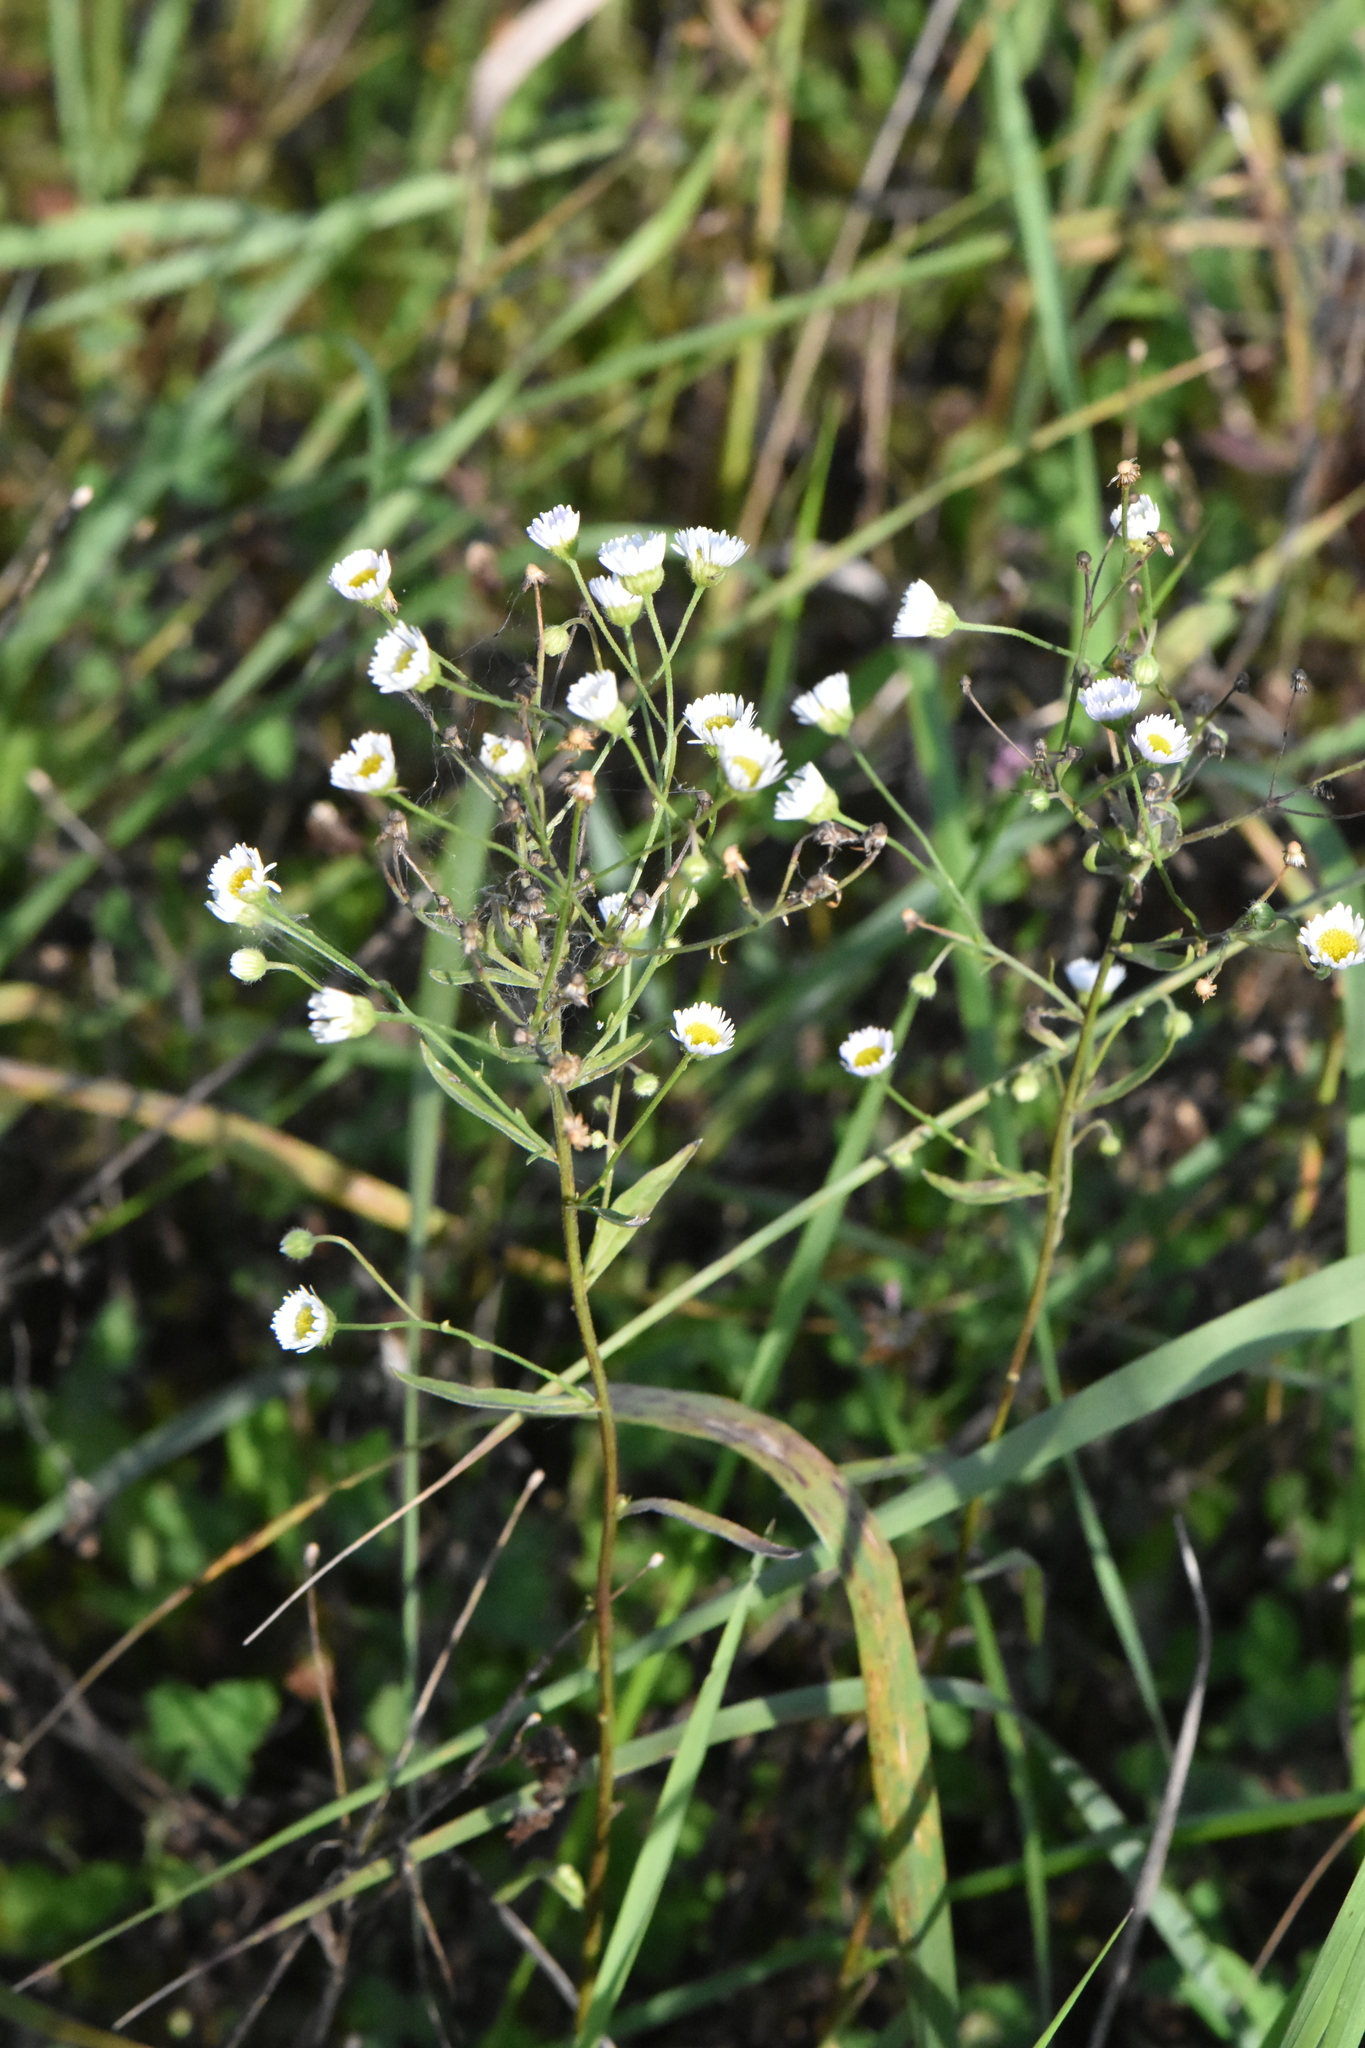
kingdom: Plantae
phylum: Tracheophyta
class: Magnoliopsida
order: Asterales
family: Asteraceae
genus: Erigeron
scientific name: Erigeron annuus
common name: Tall fleabane
